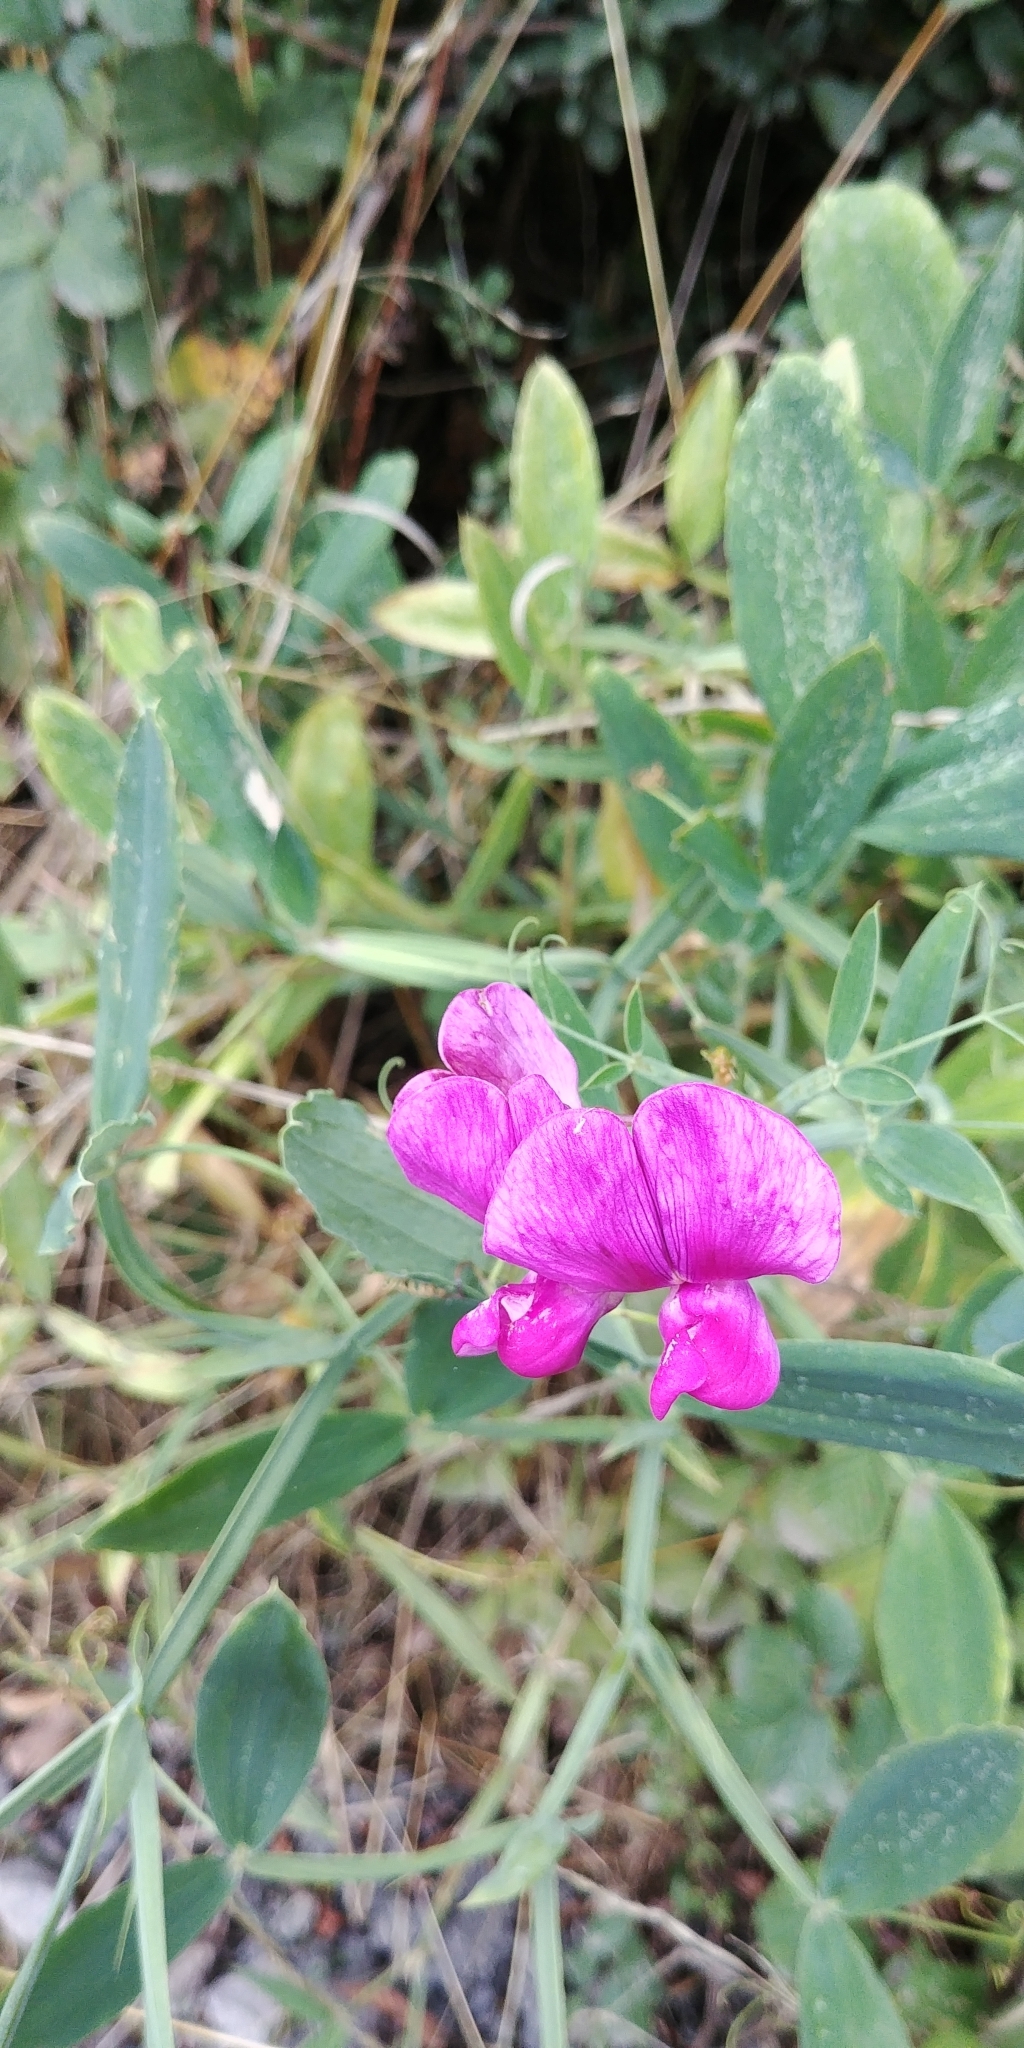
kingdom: Plantae
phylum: Tracheophyta
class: Magnoliopsida
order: Fabales
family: Fabaceae
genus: Lathyrus
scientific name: Lathyrus latifolius
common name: Perennial pea
